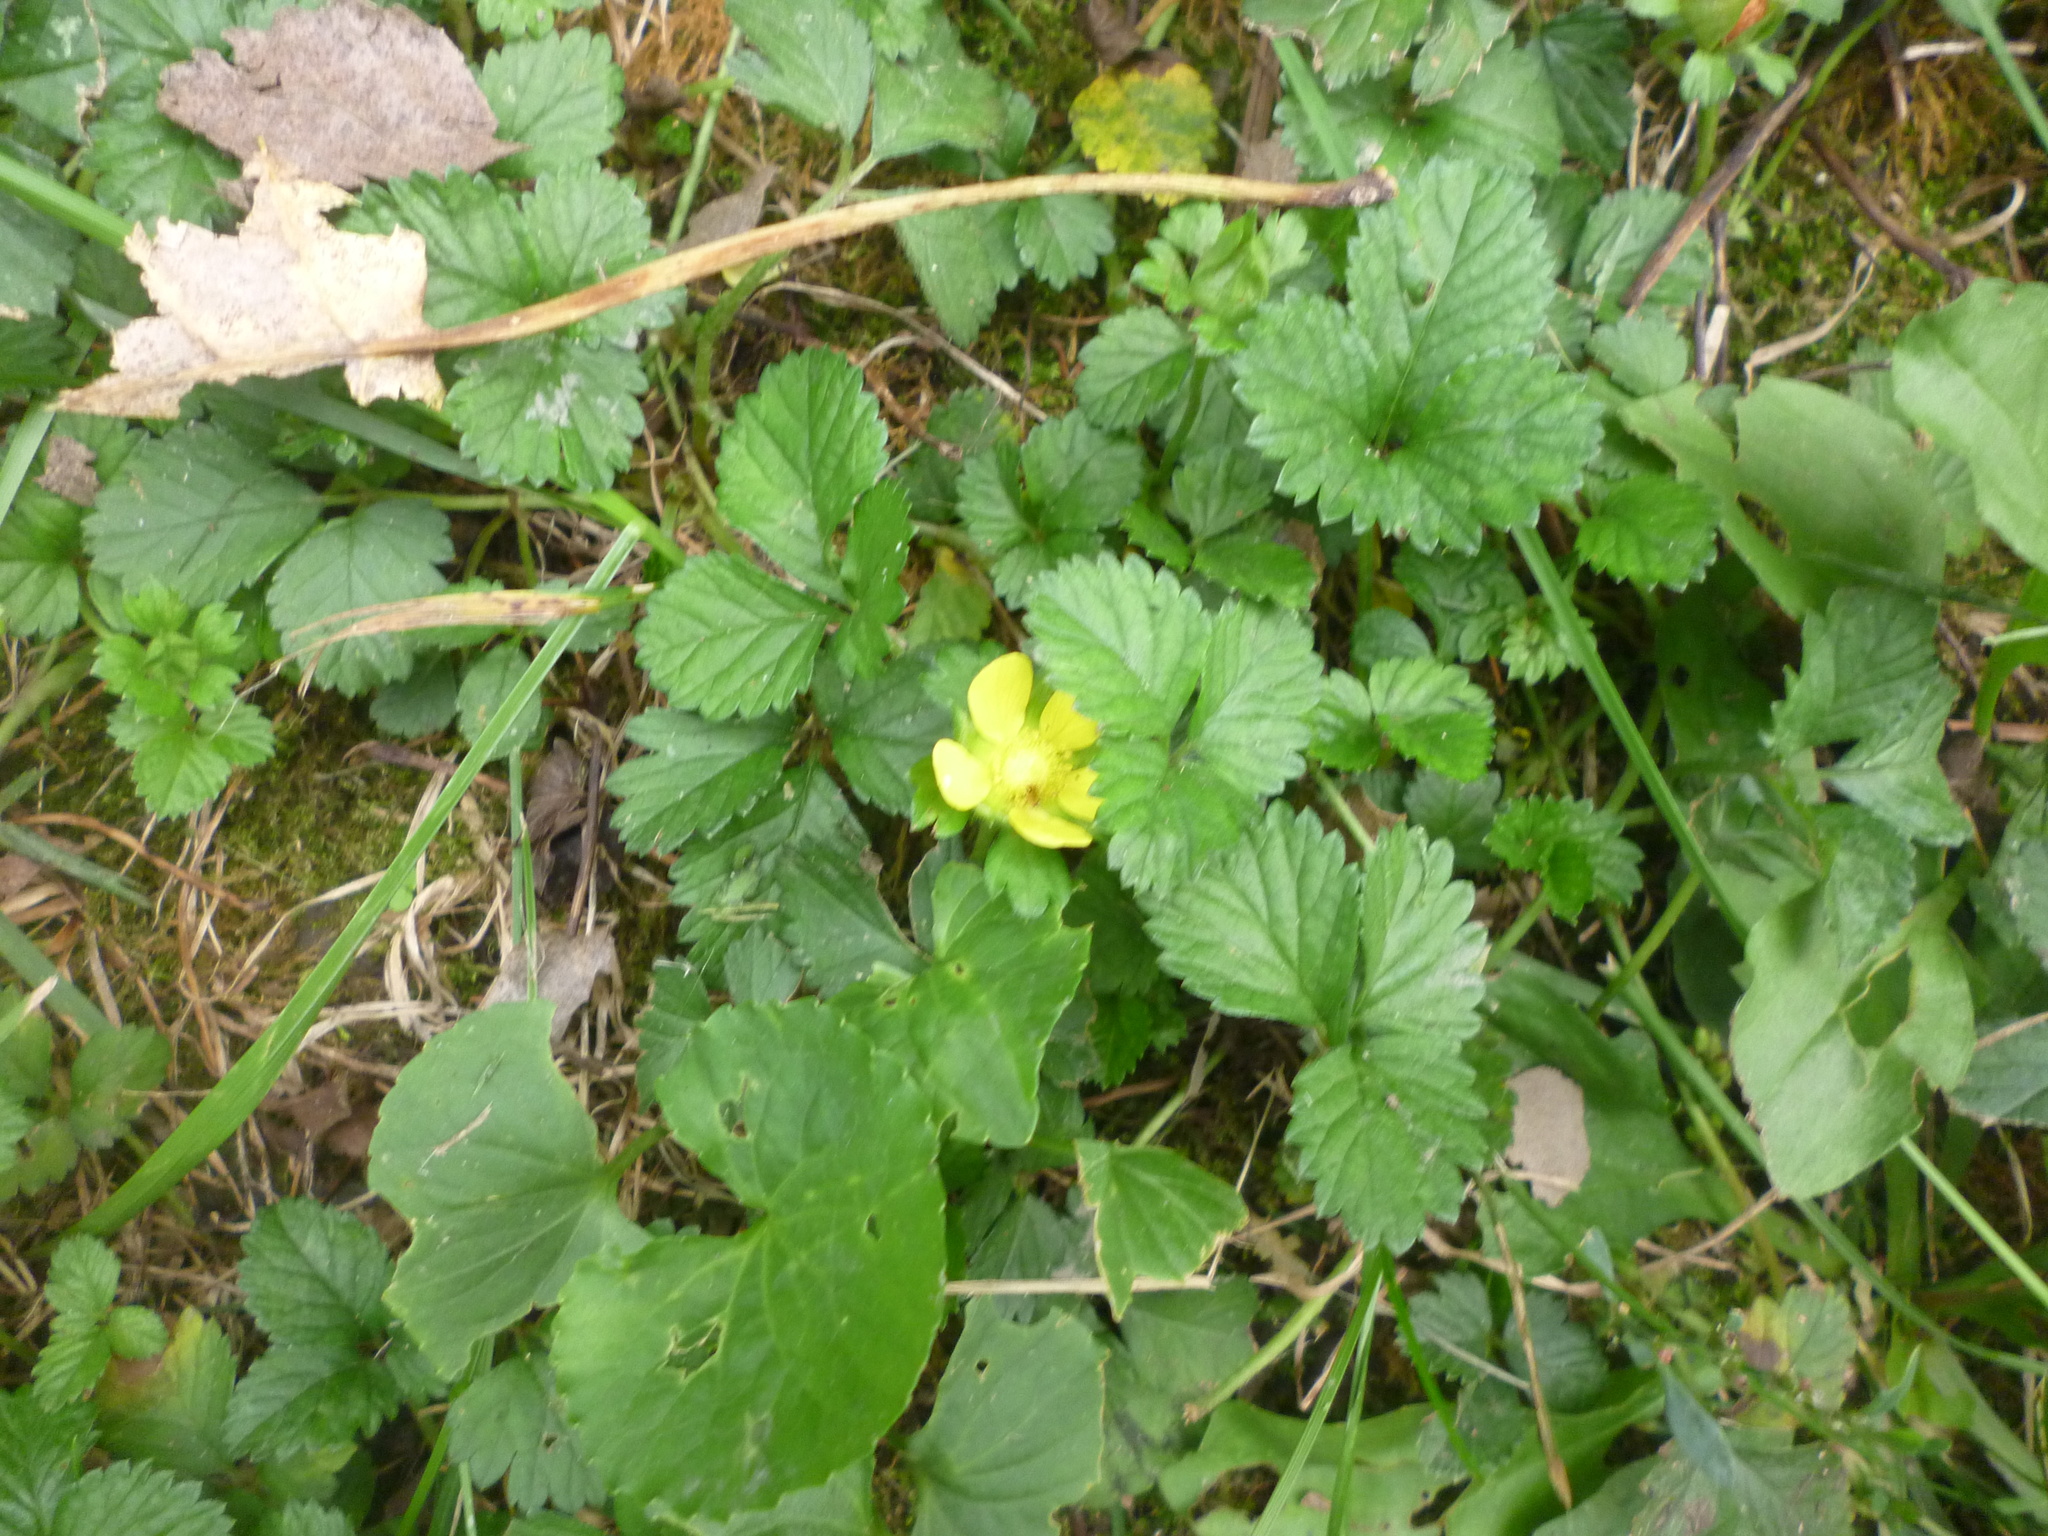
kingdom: Plantae
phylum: Tracheophyta
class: Magnoliopsida
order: Rosales
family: Rosaceae
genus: Potentilla
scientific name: Potentilla indica
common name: Yellow-flowered strawberry
